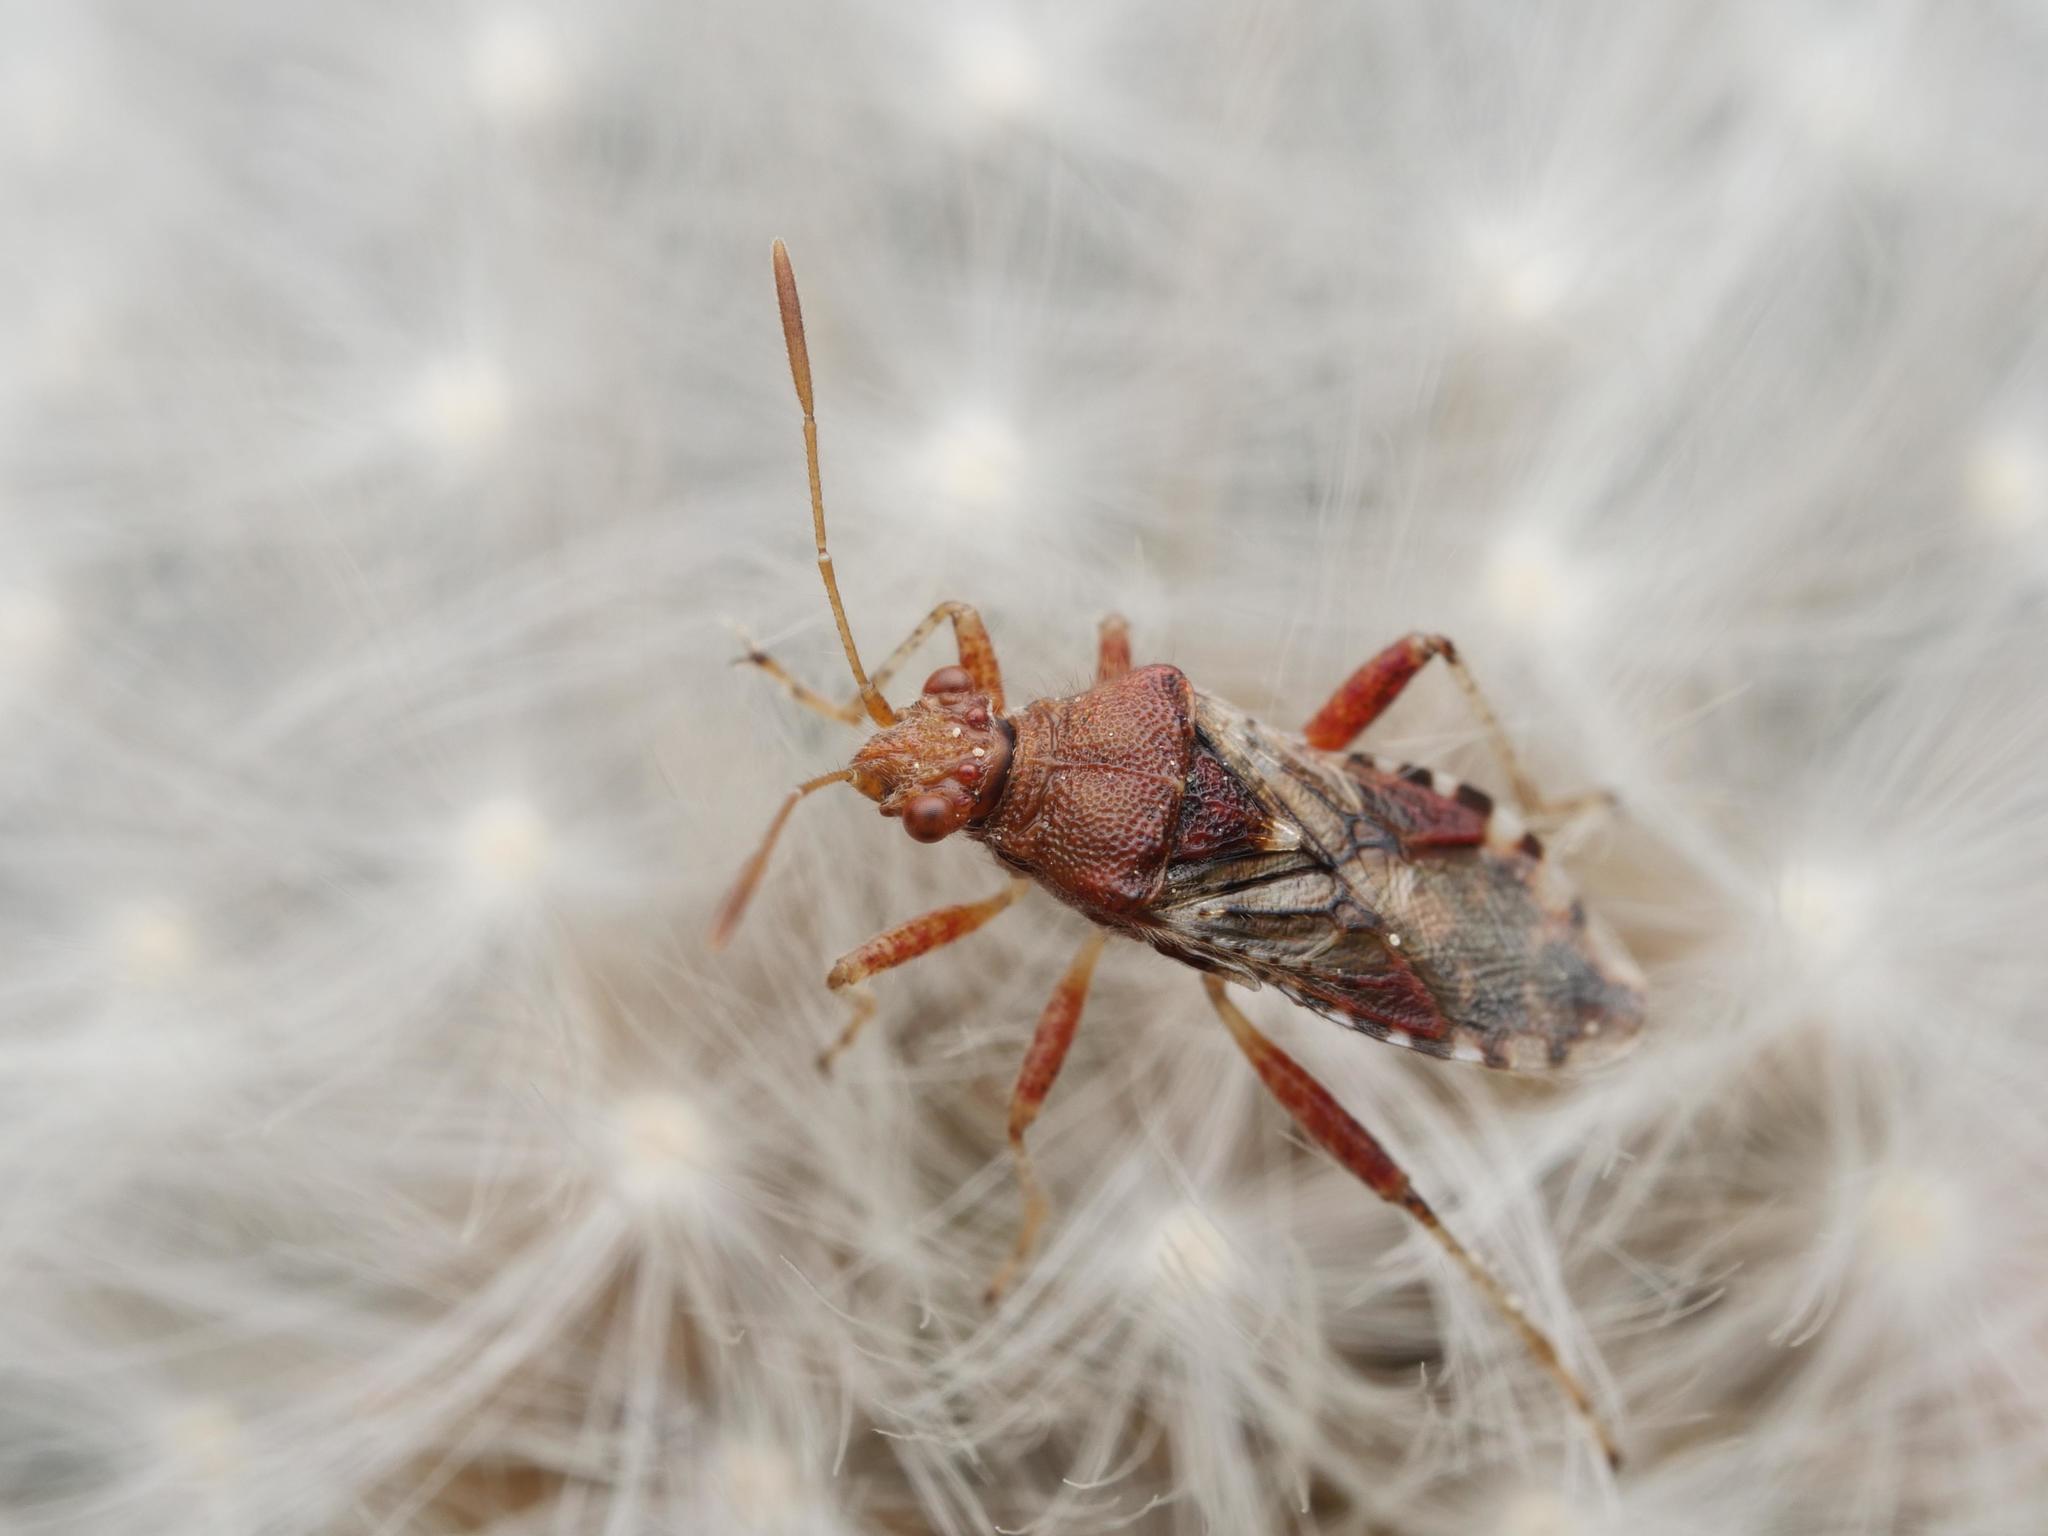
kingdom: Animalia
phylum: Arthropoda
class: Insecta
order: Hemiptera
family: Rhopalidae
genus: Rhopalus
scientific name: Rhopalus subrufus
